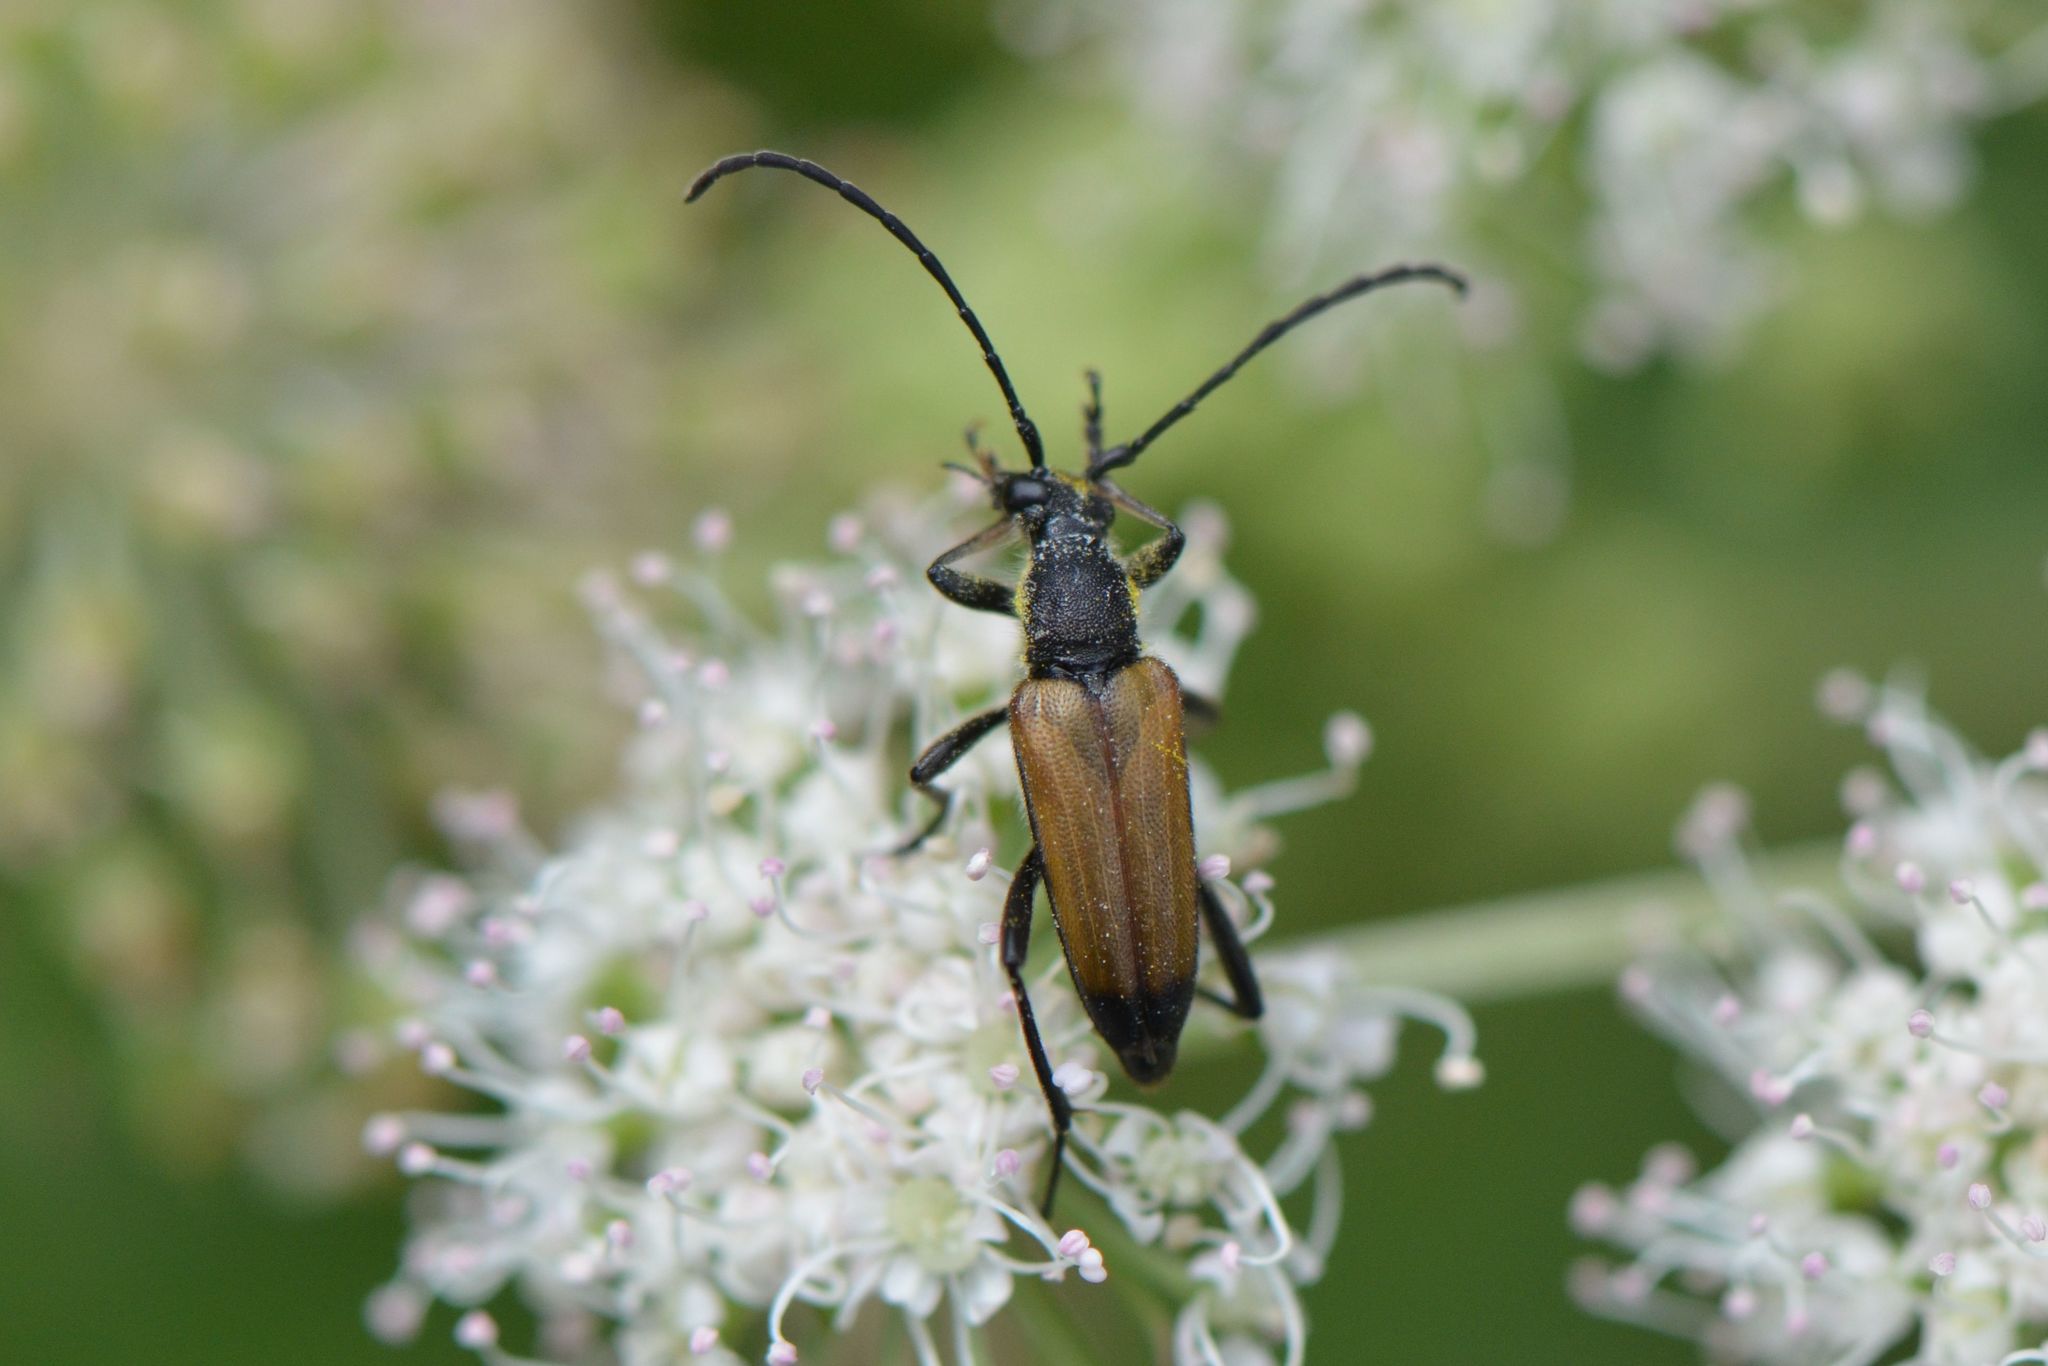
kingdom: Animalia
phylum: Arthropoda
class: Insecta
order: Coleoptera
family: Cerambycidae
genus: Anastrangalia
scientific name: Anastrangalia sanguinolenta
